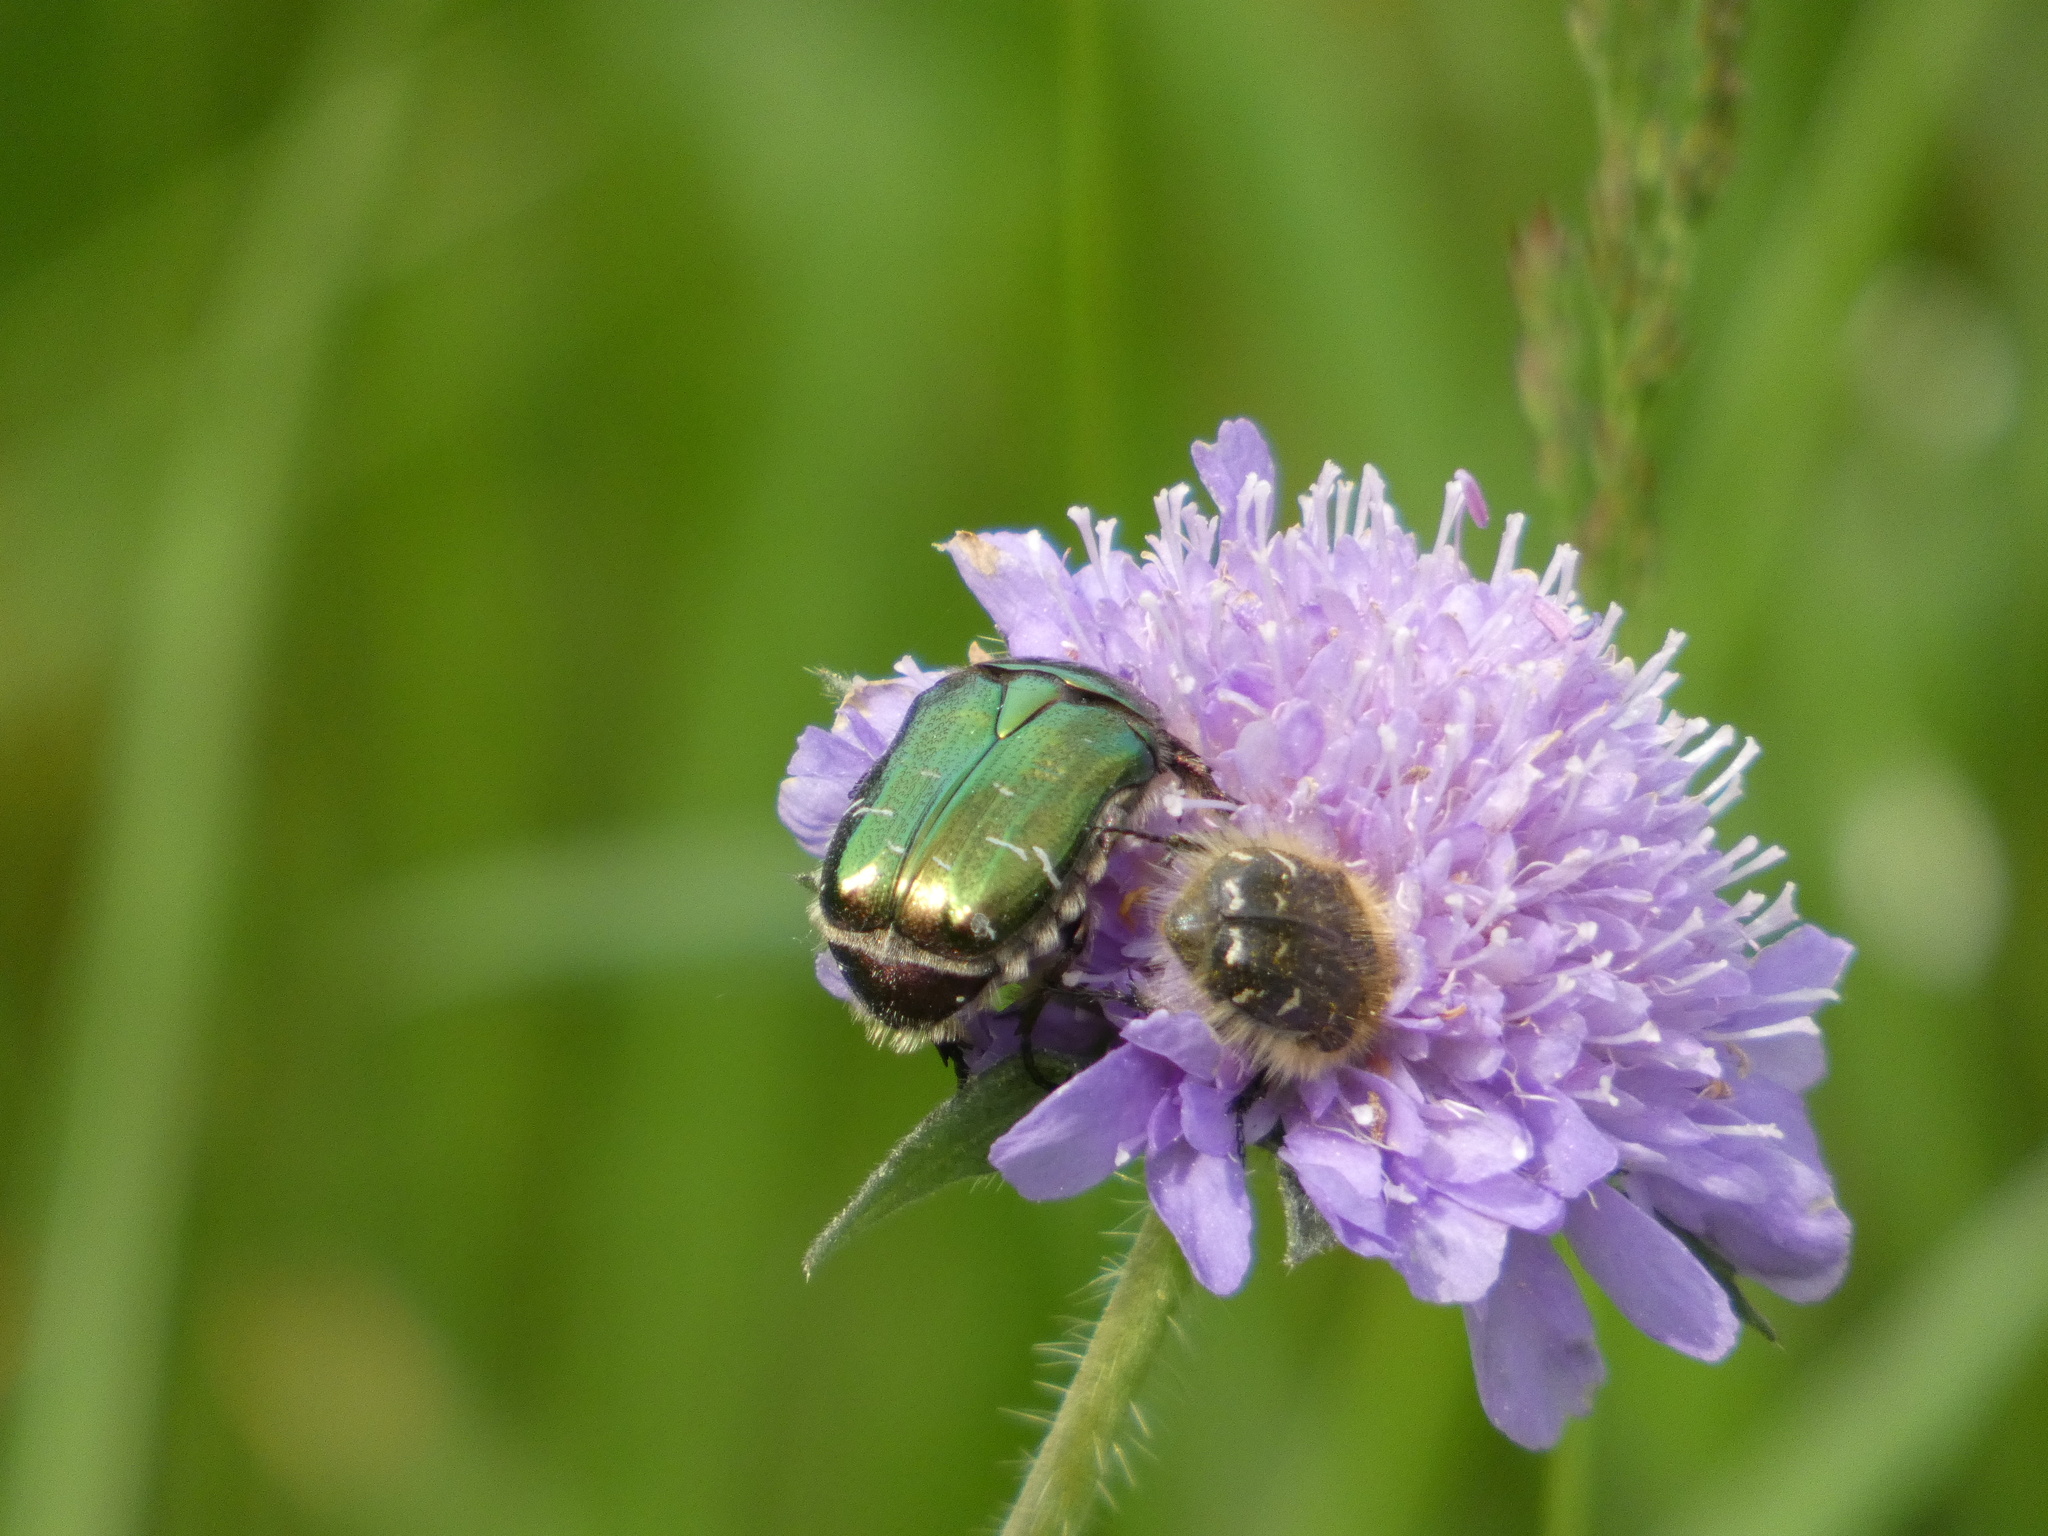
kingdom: Animalia
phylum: Arthropoda
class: Insecta
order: Coleoptera
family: Scarabaeidae
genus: Cetonia
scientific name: Cetonia aurata
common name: Rose chafer
